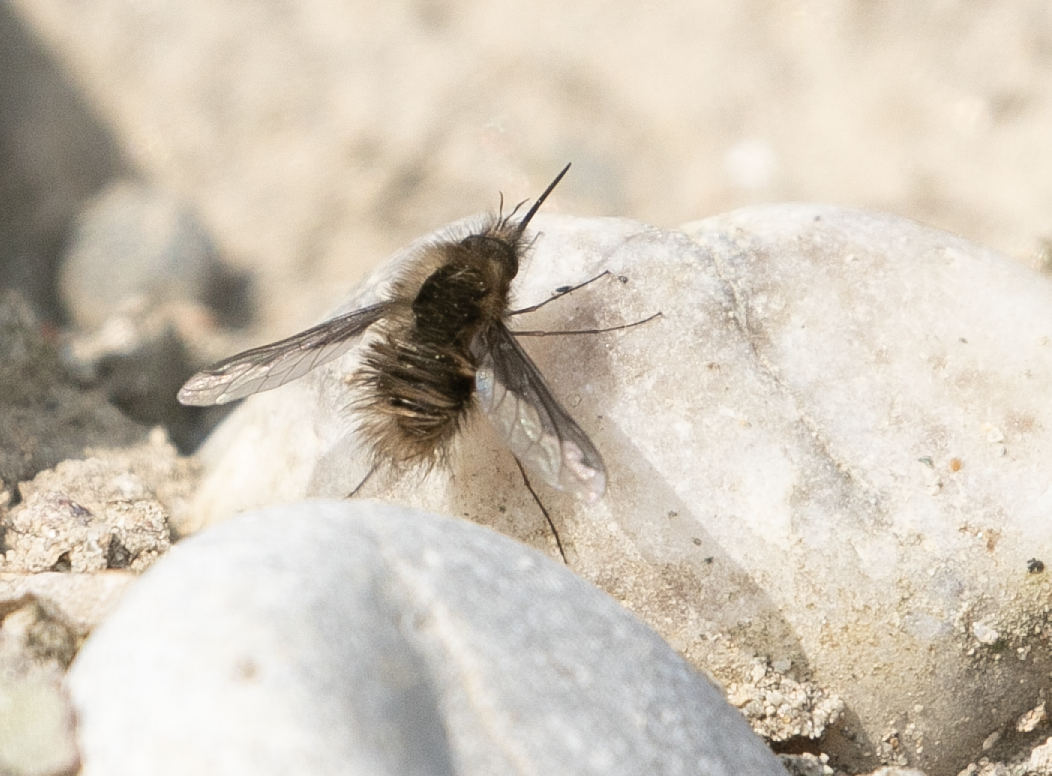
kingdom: Animalia
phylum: Arthropoda
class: Insecta
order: Diptera
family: Bombyliidae
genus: Bombylius
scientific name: Bombylius major
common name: Bee fly
